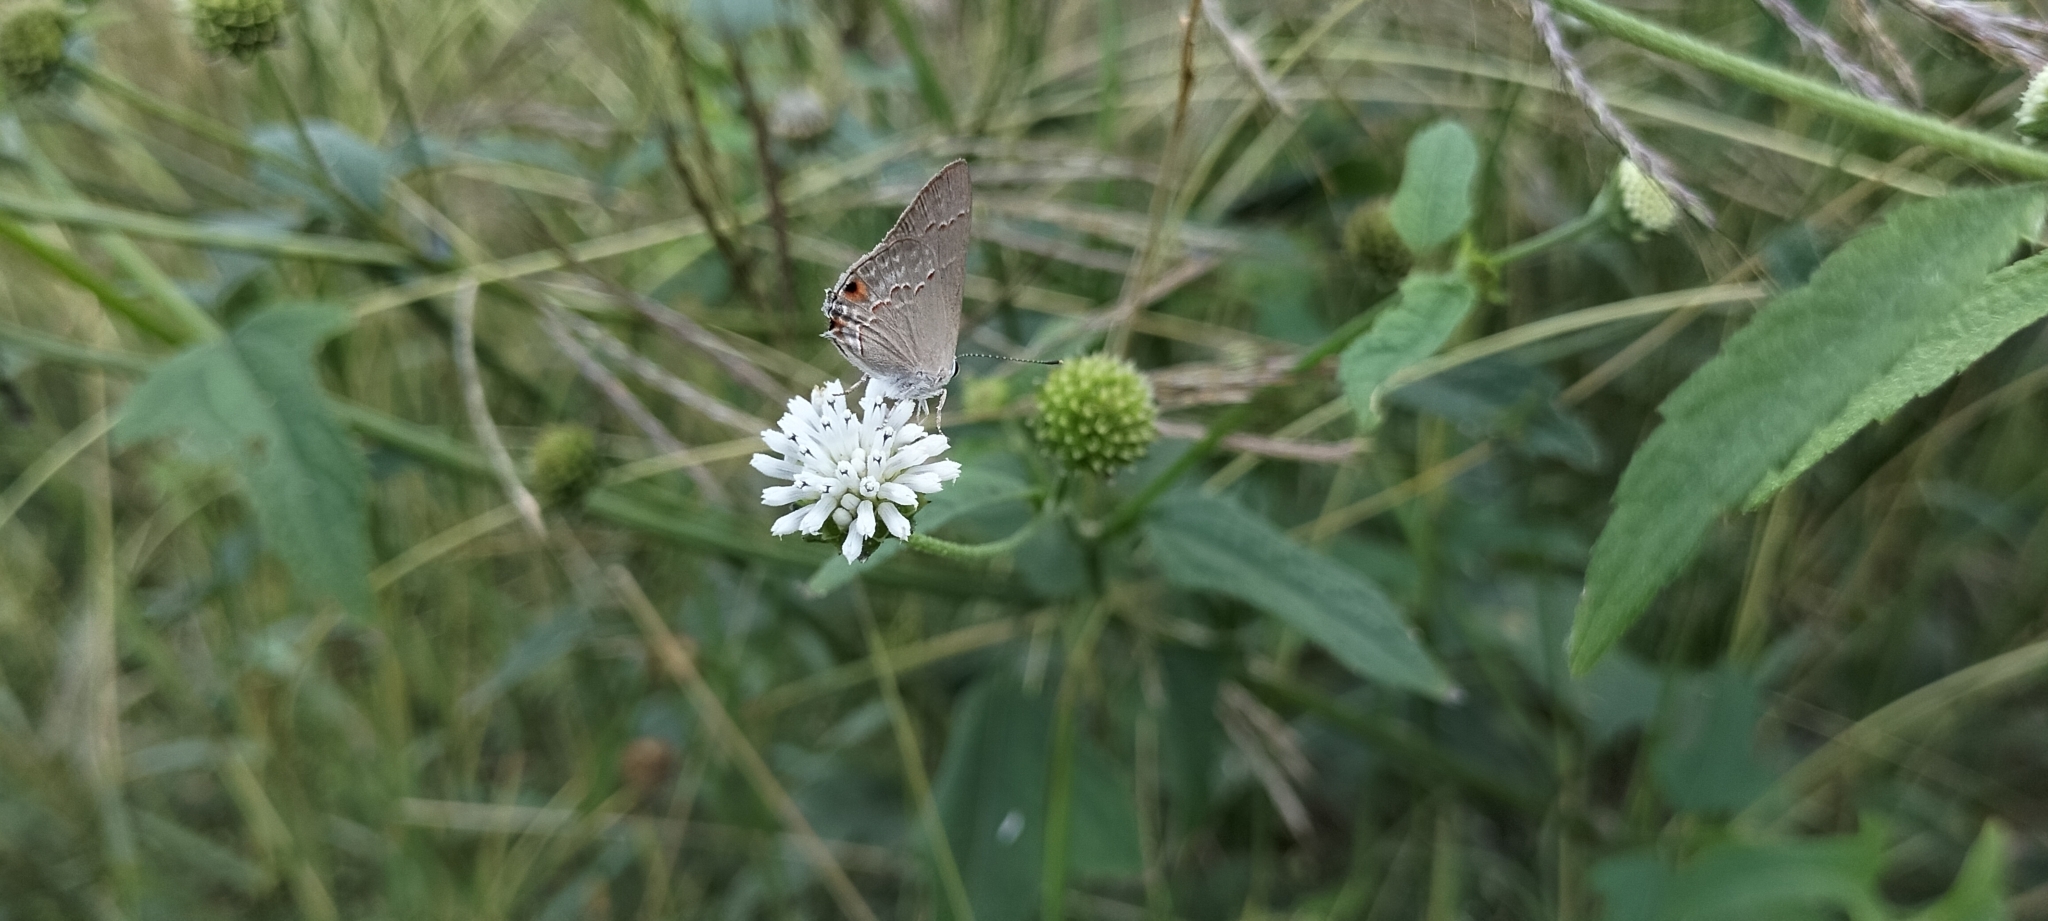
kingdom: Animalia
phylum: Arthropoda
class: Insecta
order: Lepidoptera
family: Lycaenidae
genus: Thecla
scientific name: Thecla rufofusca
